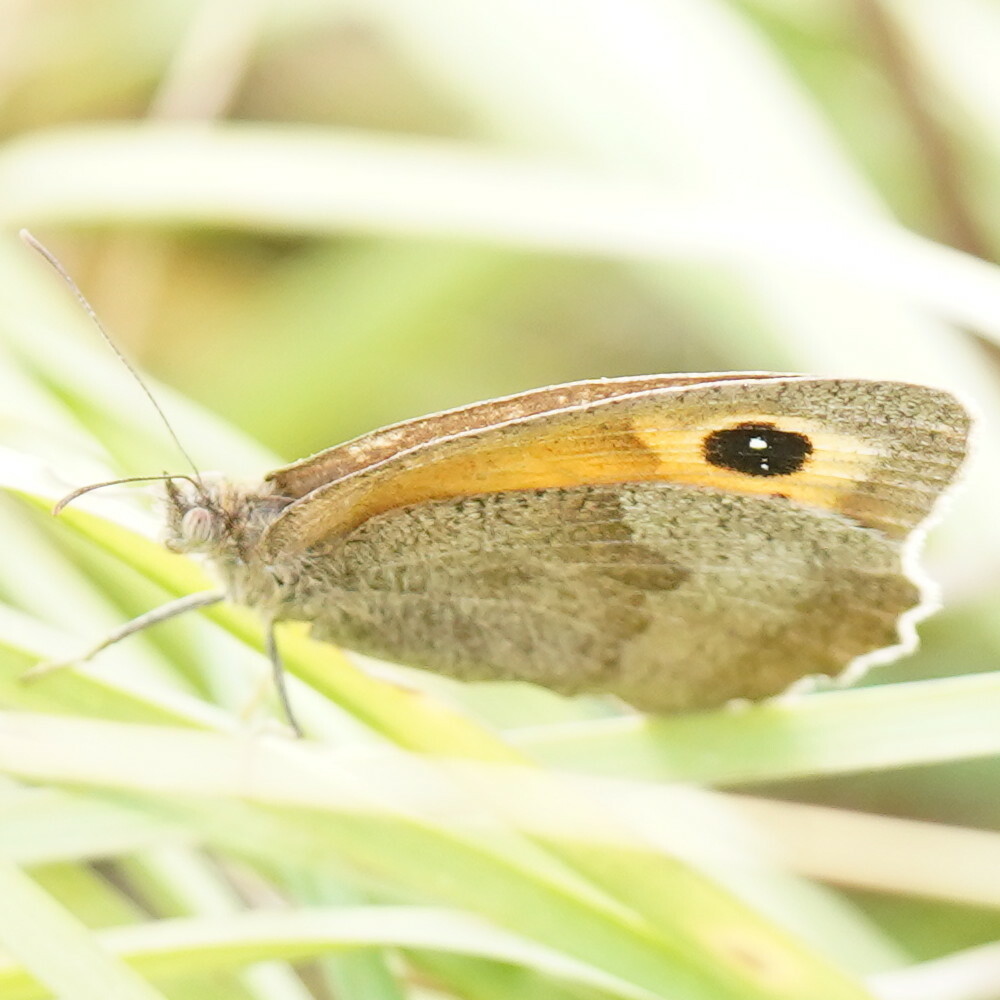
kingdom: Animalia
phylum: Arthropoda
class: Insecta
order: Lepidoptera
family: Nymphalidae
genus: Maniola
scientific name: Maniola jurtina
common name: Meadow brown
